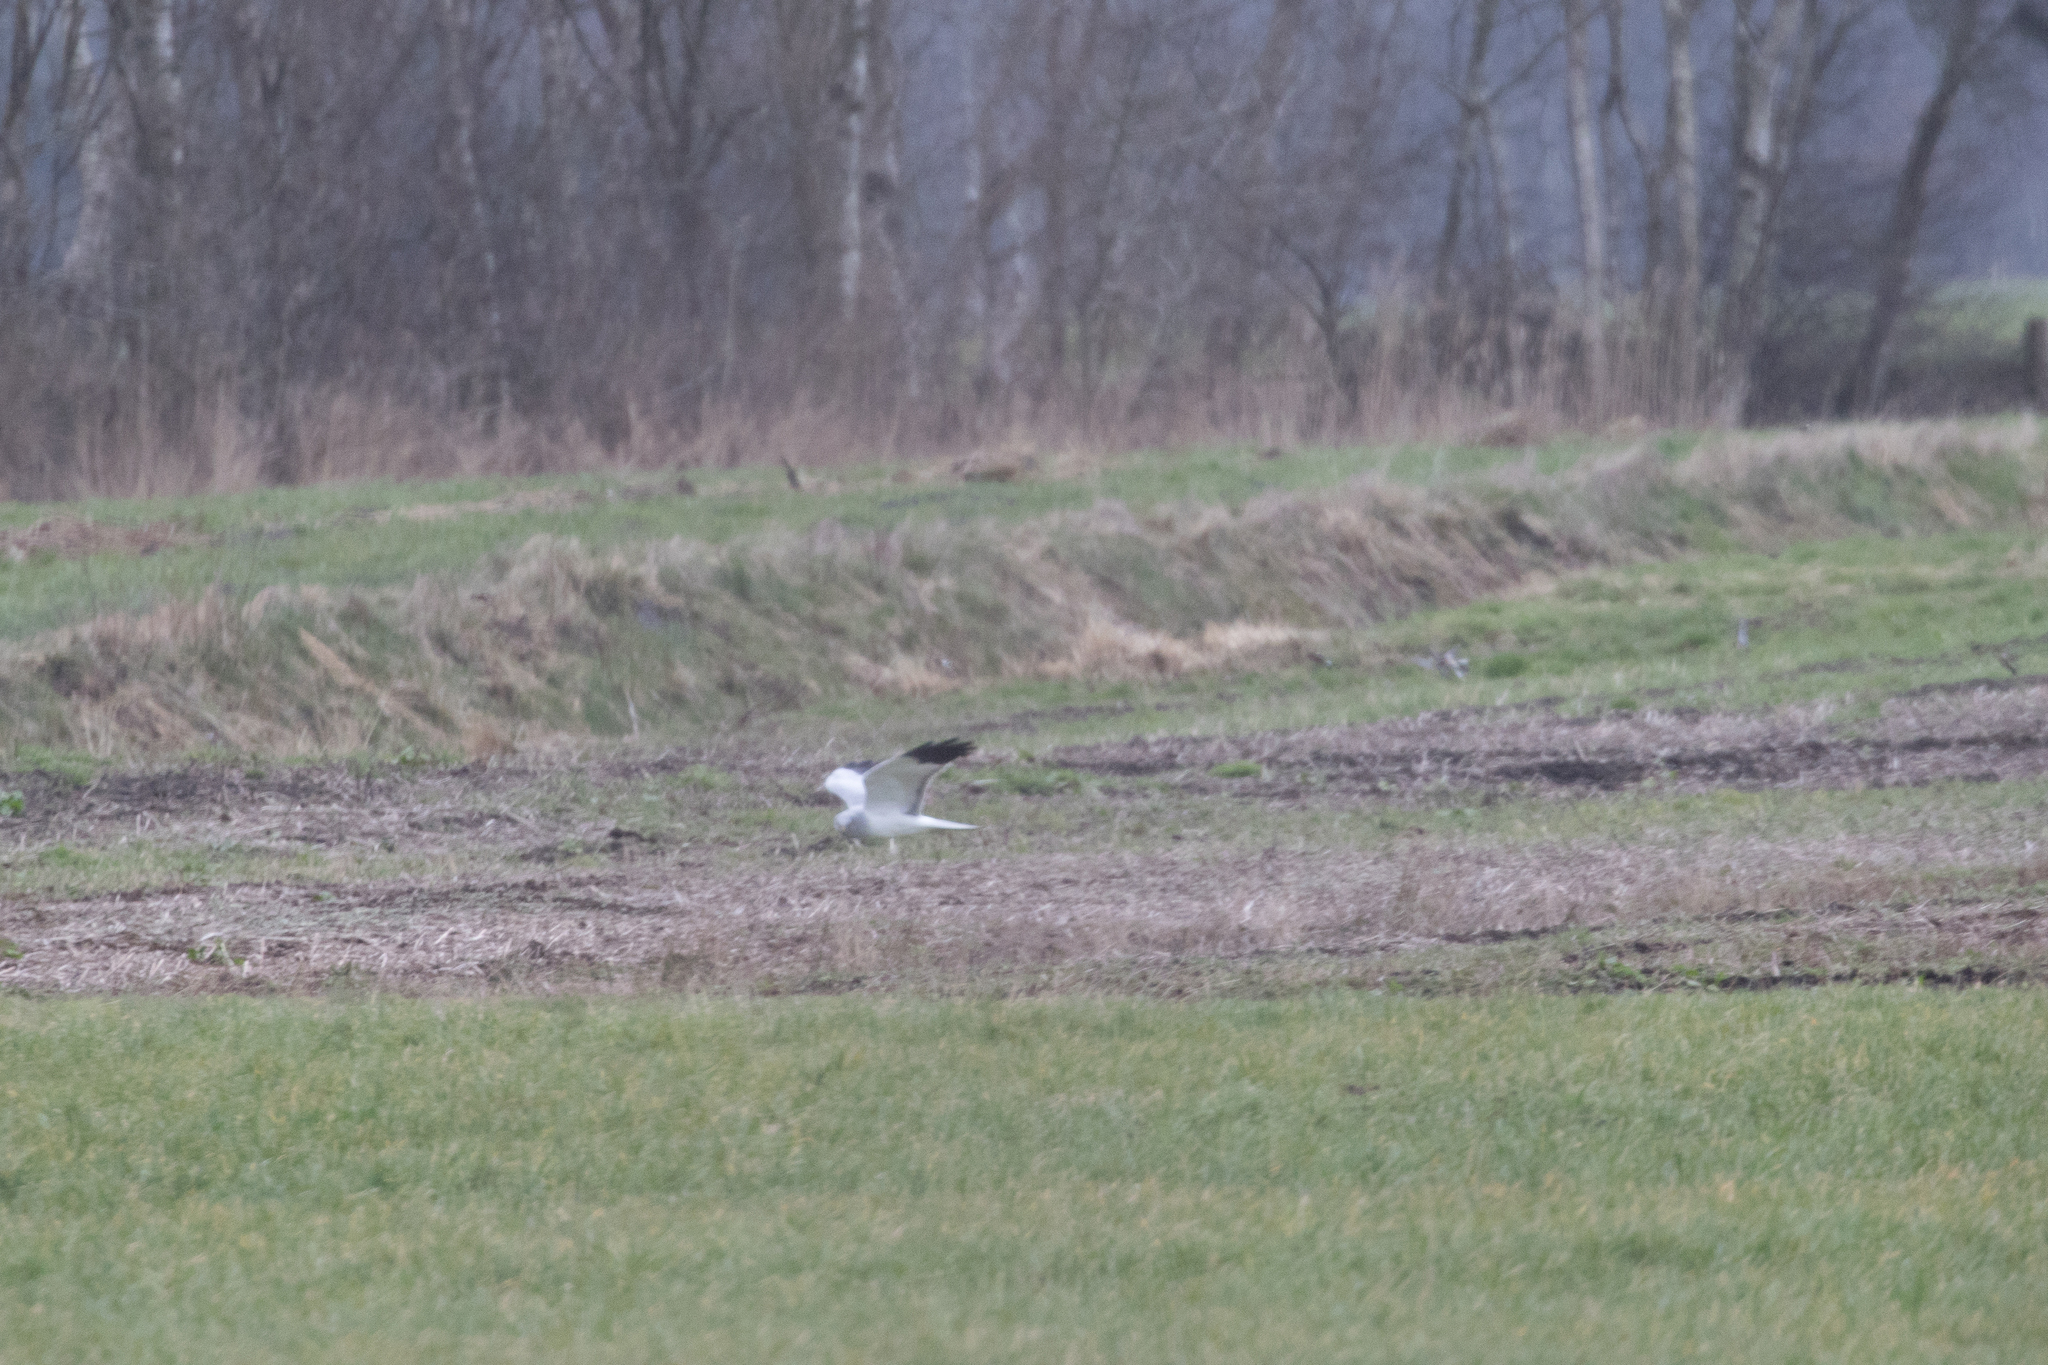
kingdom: Animalia
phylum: Chordata
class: Aves
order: Accipitriformes
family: Accipitridae
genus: Circus
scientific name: Circus cyaneus
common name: Hen harrier
